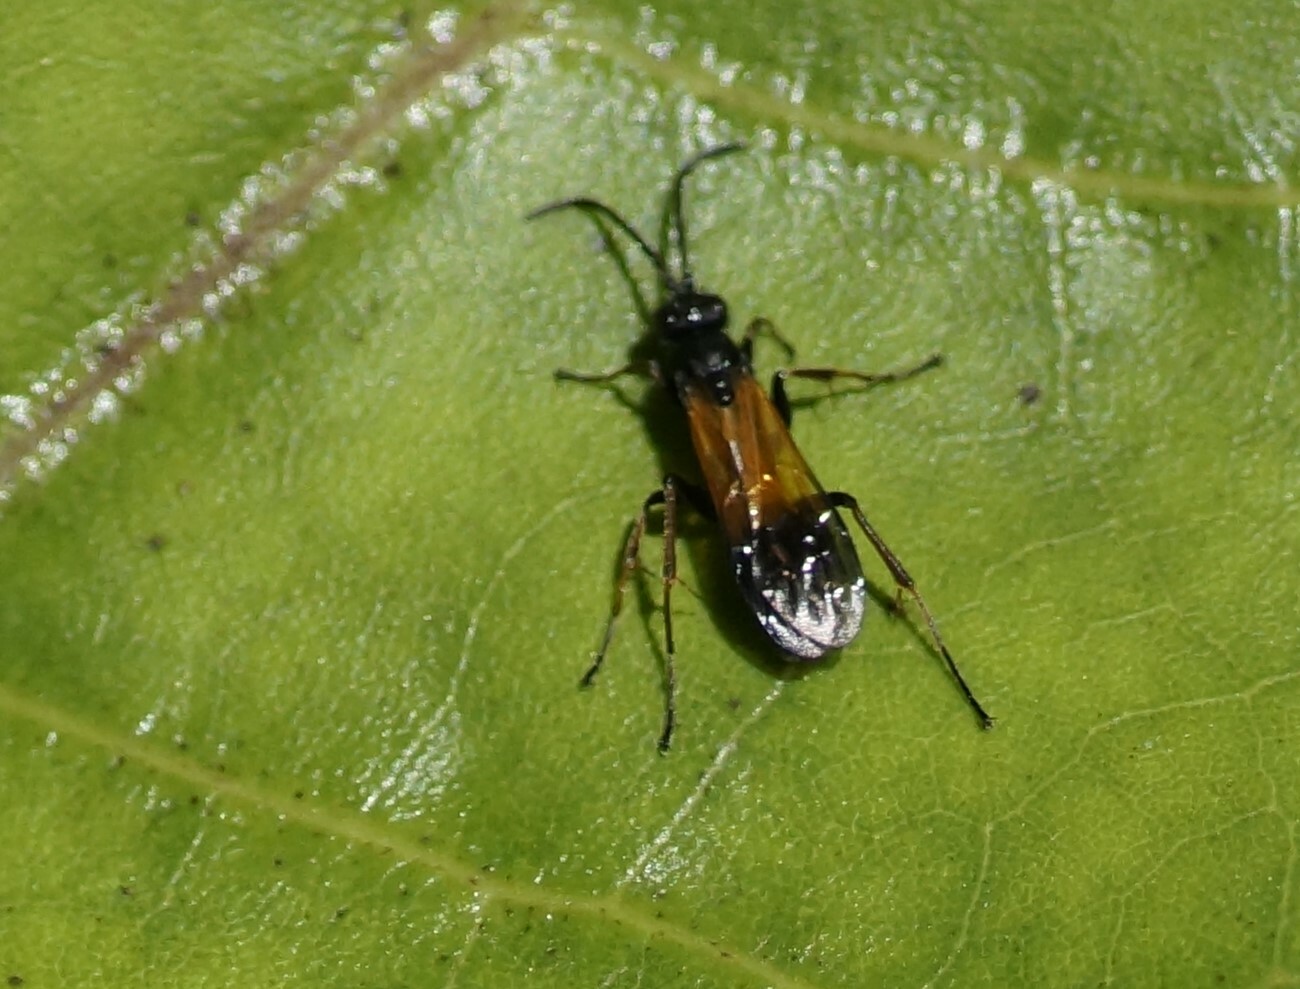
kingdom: Animalia
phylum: Arthropoda
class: Insecta
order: Hymenoptera
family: Pompilidae
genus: Priocnemis
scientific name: Priocnemis conformis
